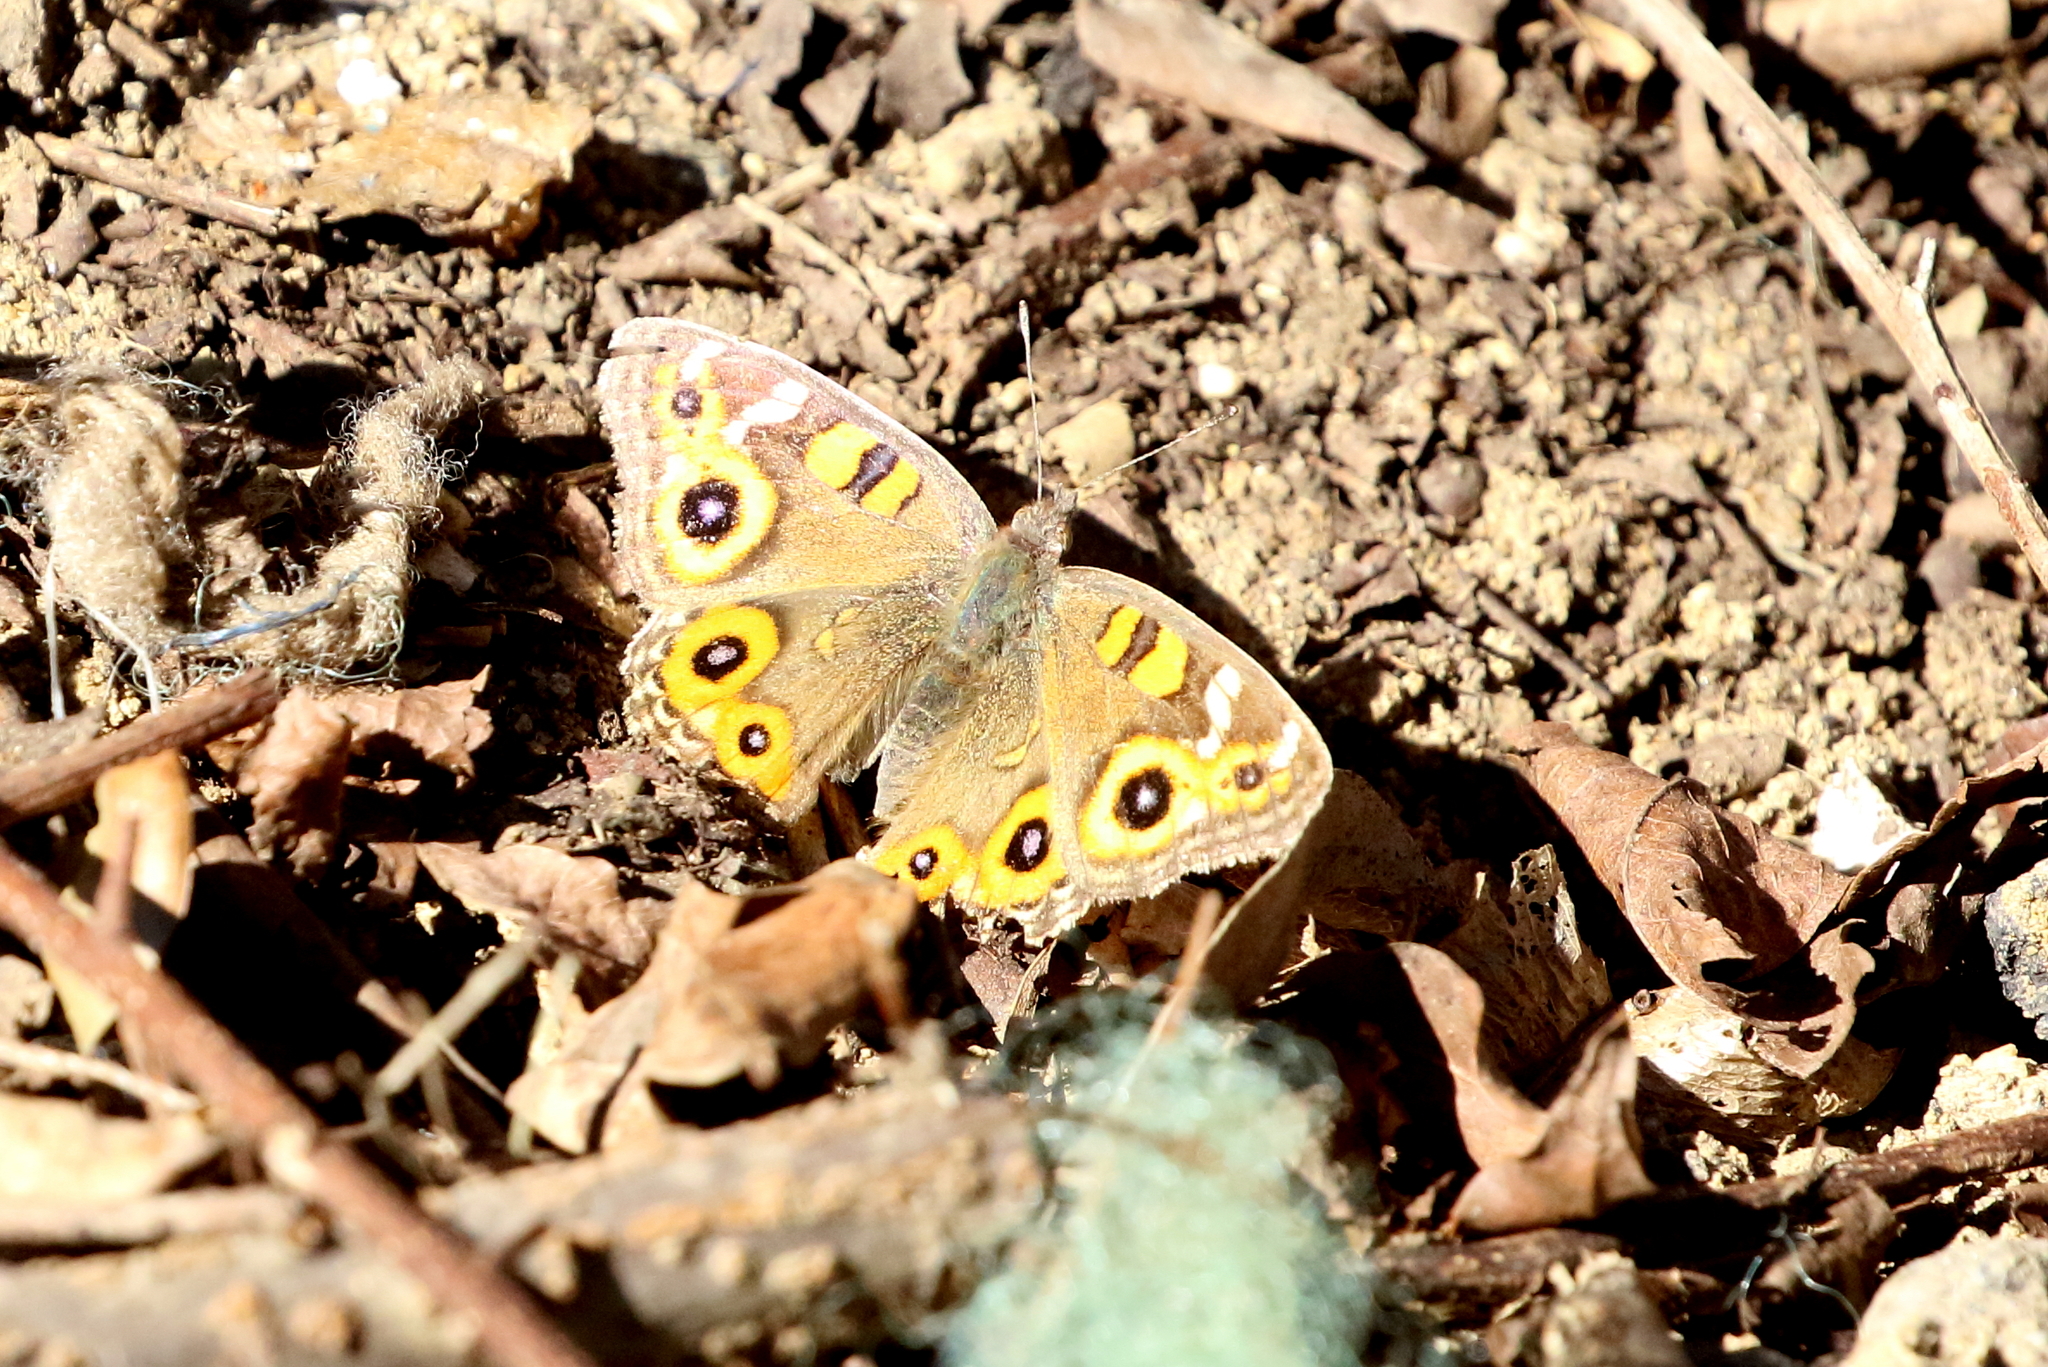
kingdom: Animalia
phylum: Arthropoda
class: Insecta
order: Lepidoptera
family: Nymphalidae
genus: Junonia
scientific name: Junonia villida
